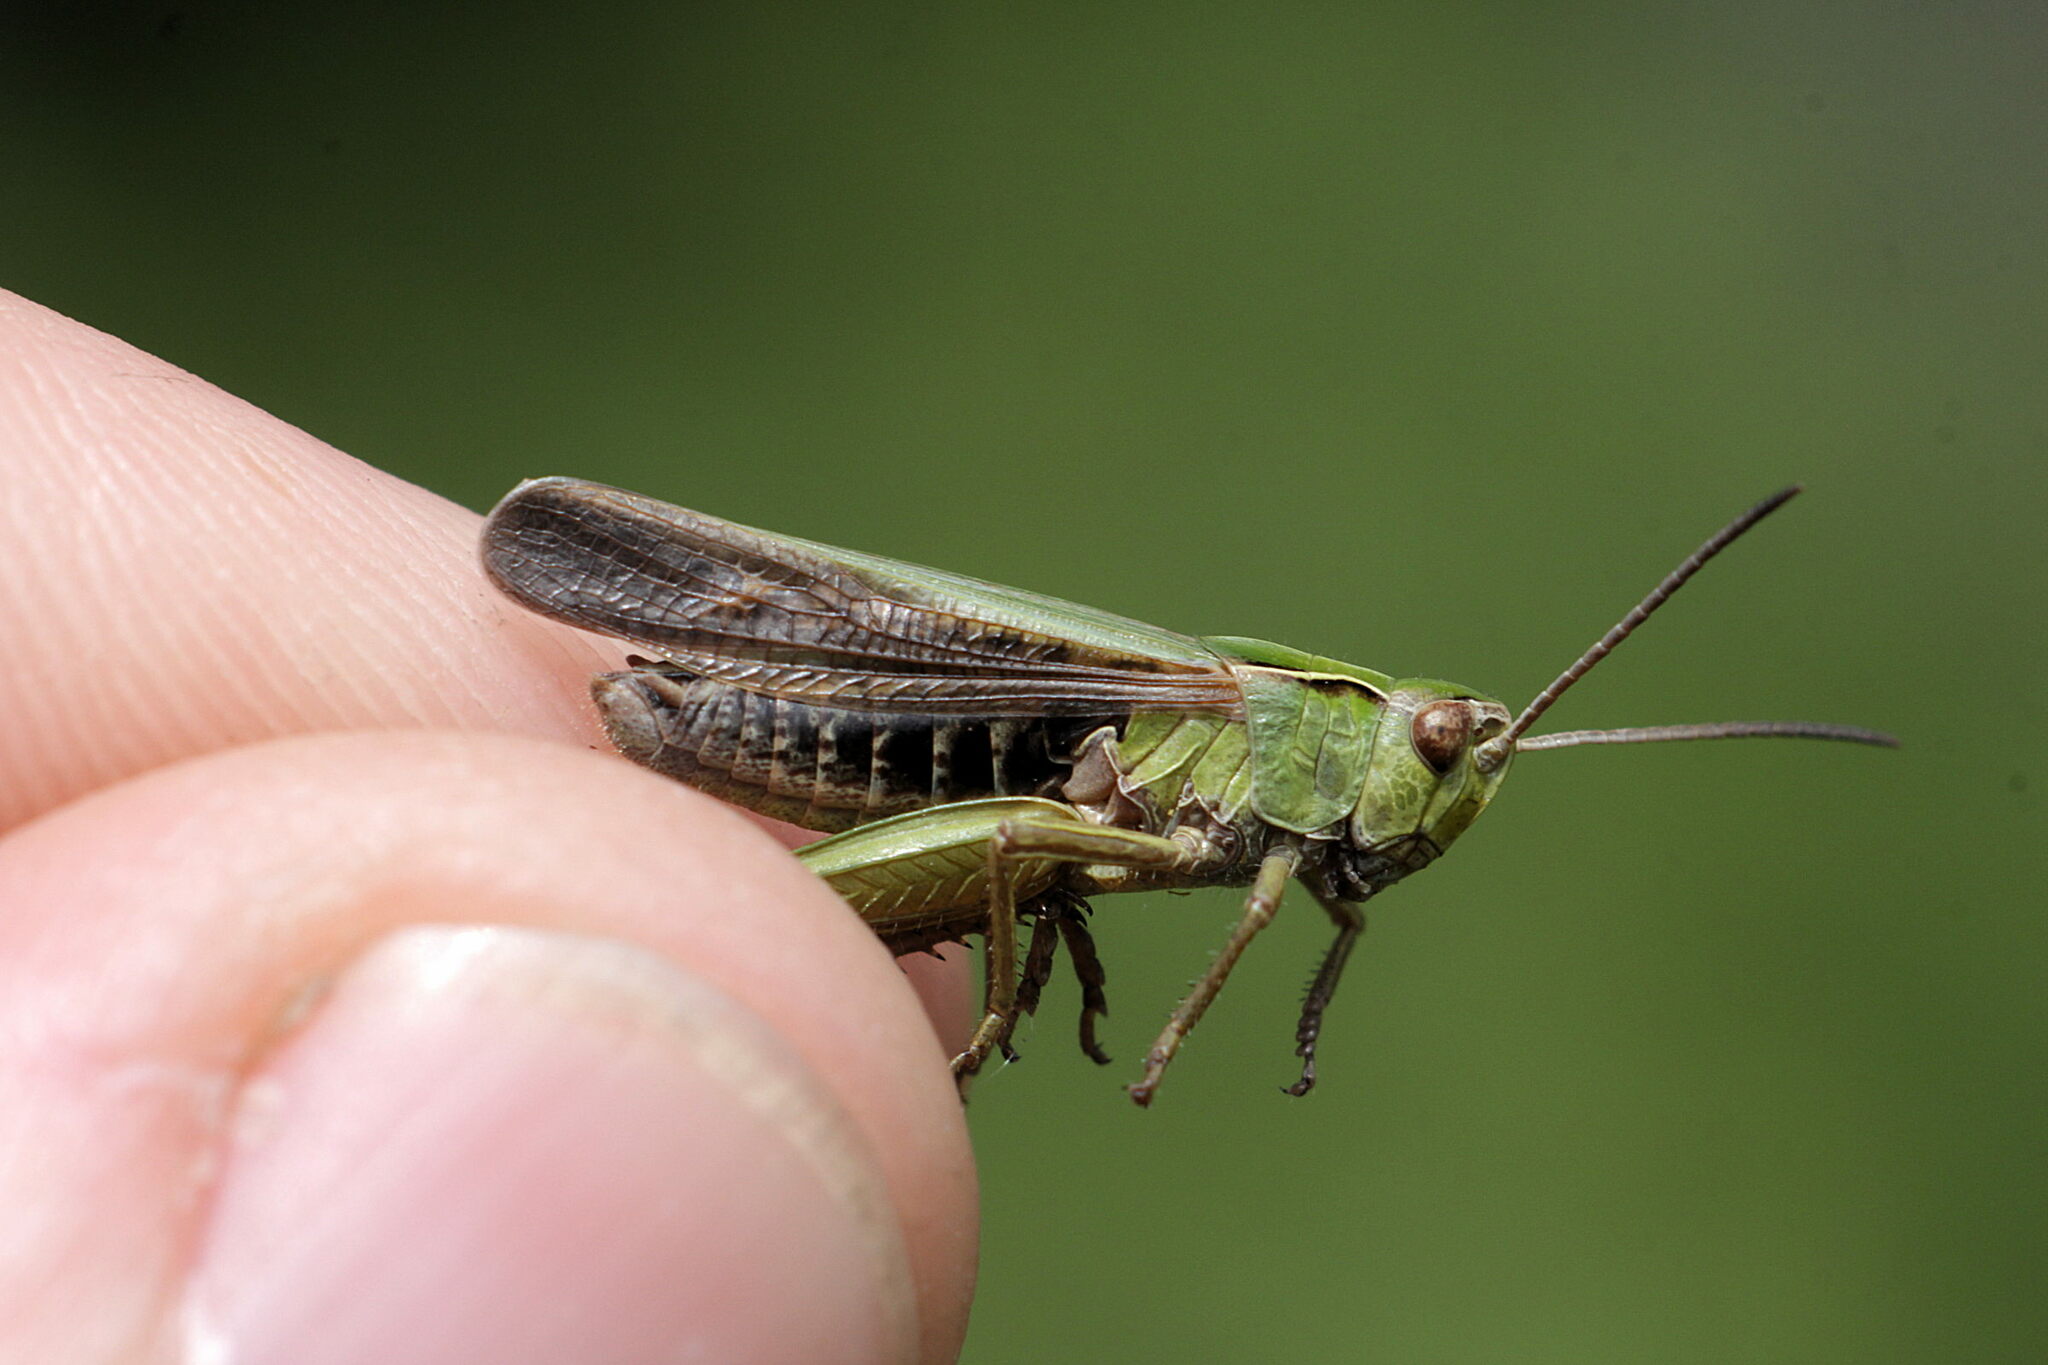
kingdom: Animalia
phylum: Arthropoda
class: Insecta
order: Orthoptera
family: Acrididae
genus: Omocestus
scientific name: Omocestus viridulus
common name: Common green grasshopper
